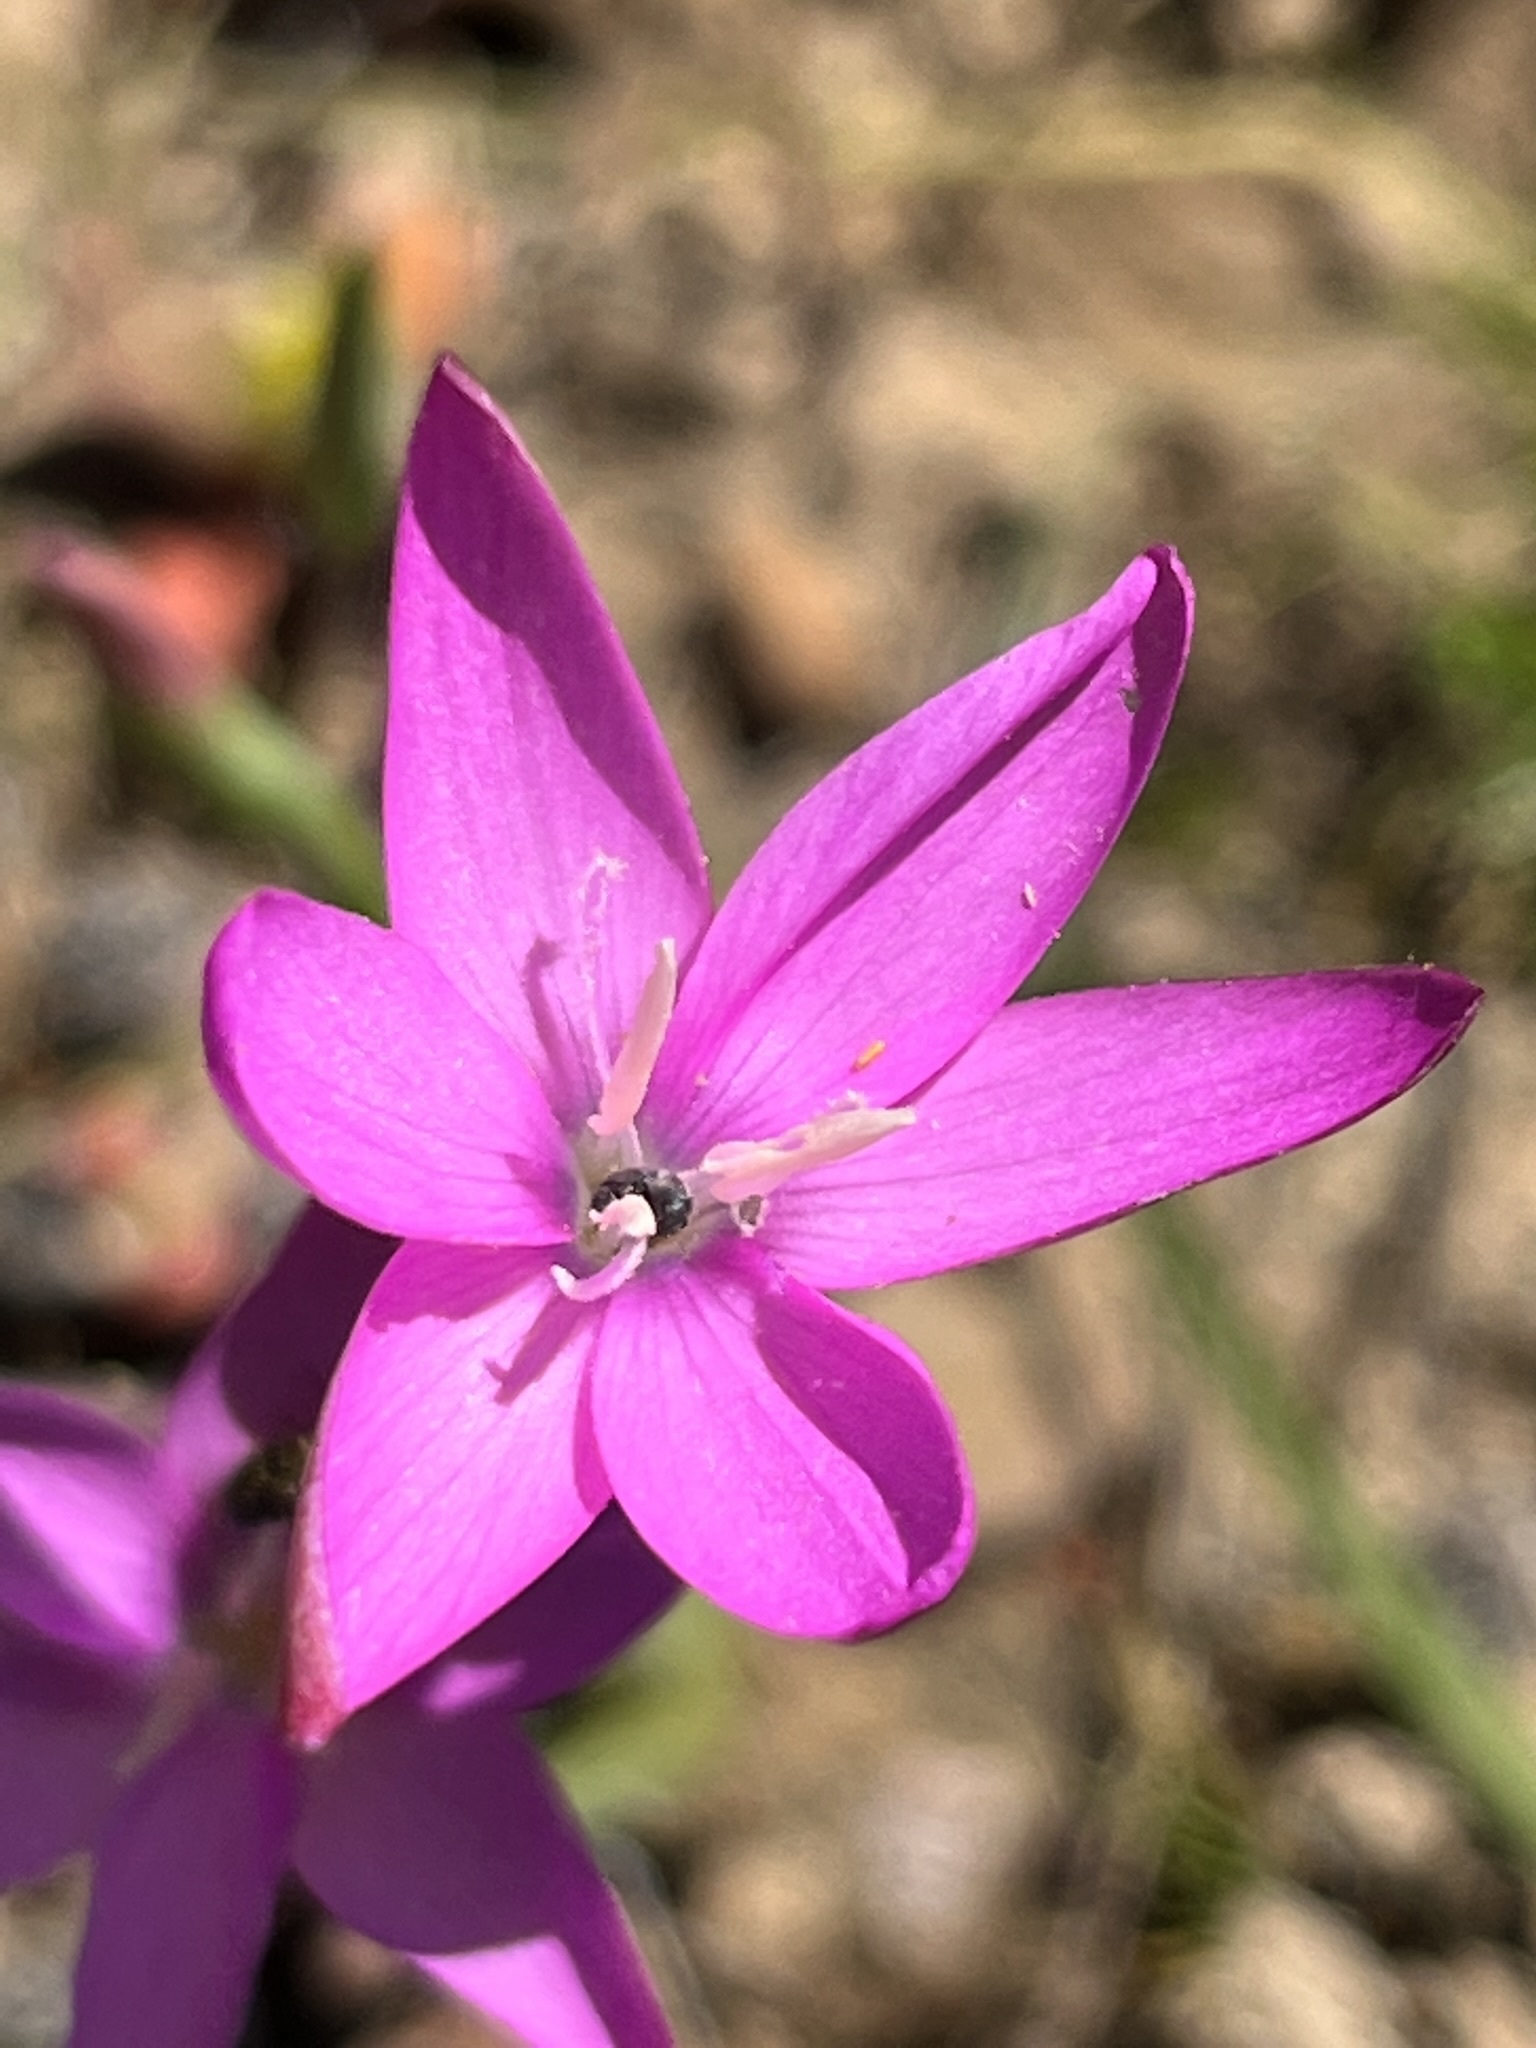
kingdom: Plantae
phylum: Tracheophyta
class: Liliopsida
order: Asparagales
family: Iridaceae
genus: Hesperantha
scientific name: Hesperantha pauciflora
